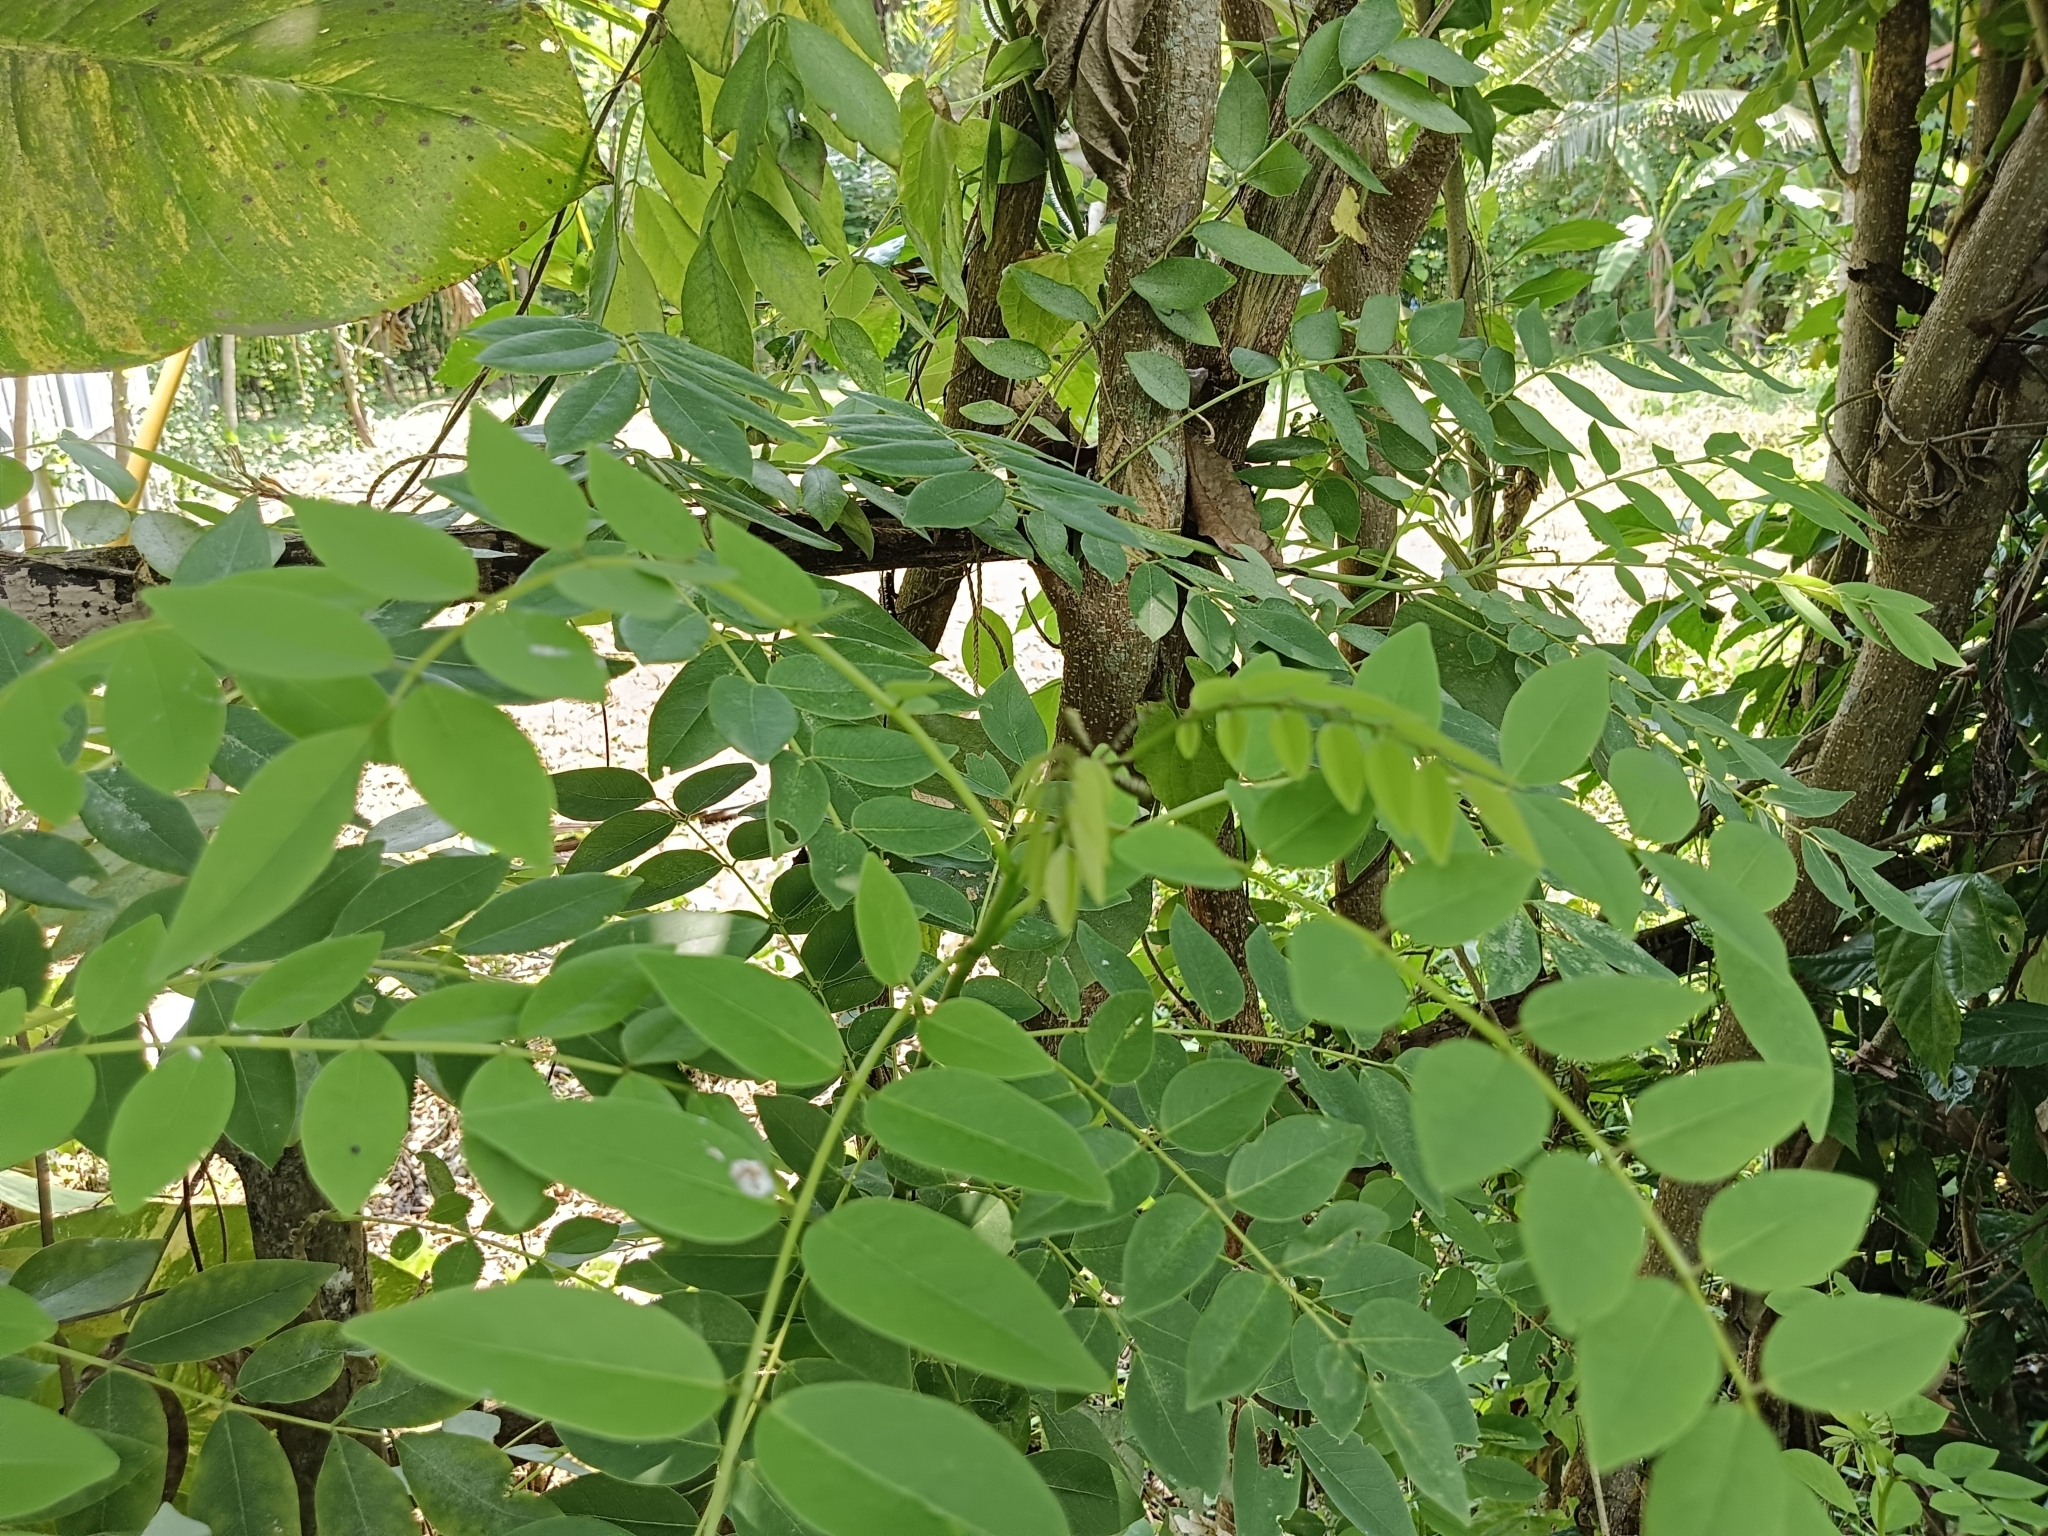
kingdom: Plantae
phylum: Tracheophyta
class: Magnoliopsida
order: Fabales
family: Fabaceae
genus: Gliricidia
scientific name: Gliricidia sepium
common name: Quickstick
